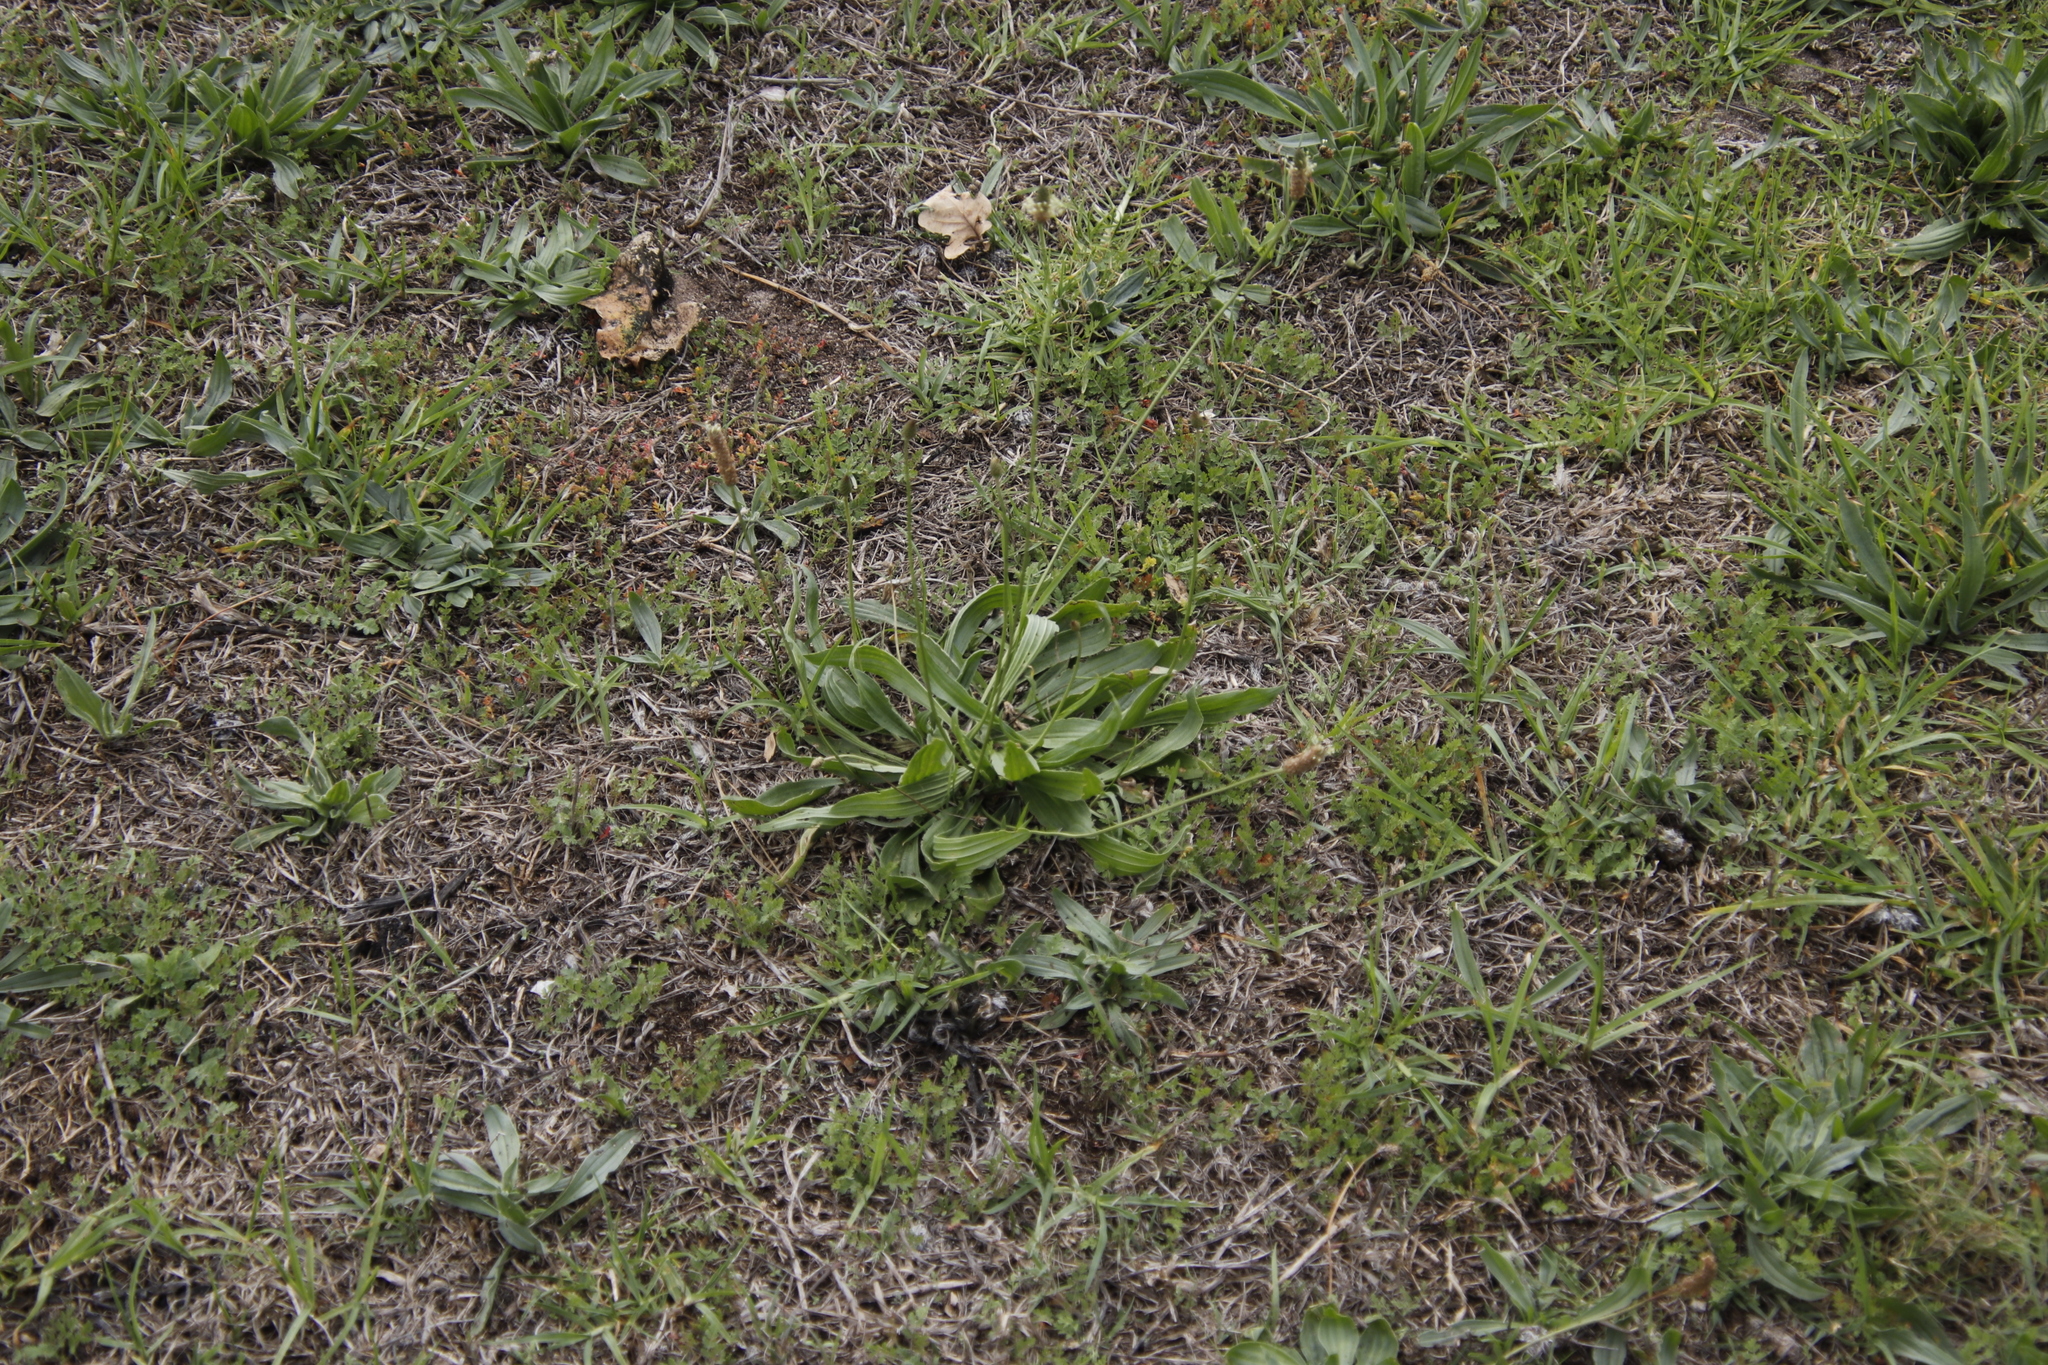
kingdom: Plantae
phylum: Tracheophyta
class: Magnoliopsida
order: Lamiales
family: Plantaginaceae
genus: Plantago
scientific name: Plantago lanceolata
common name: Ribwort plantain
